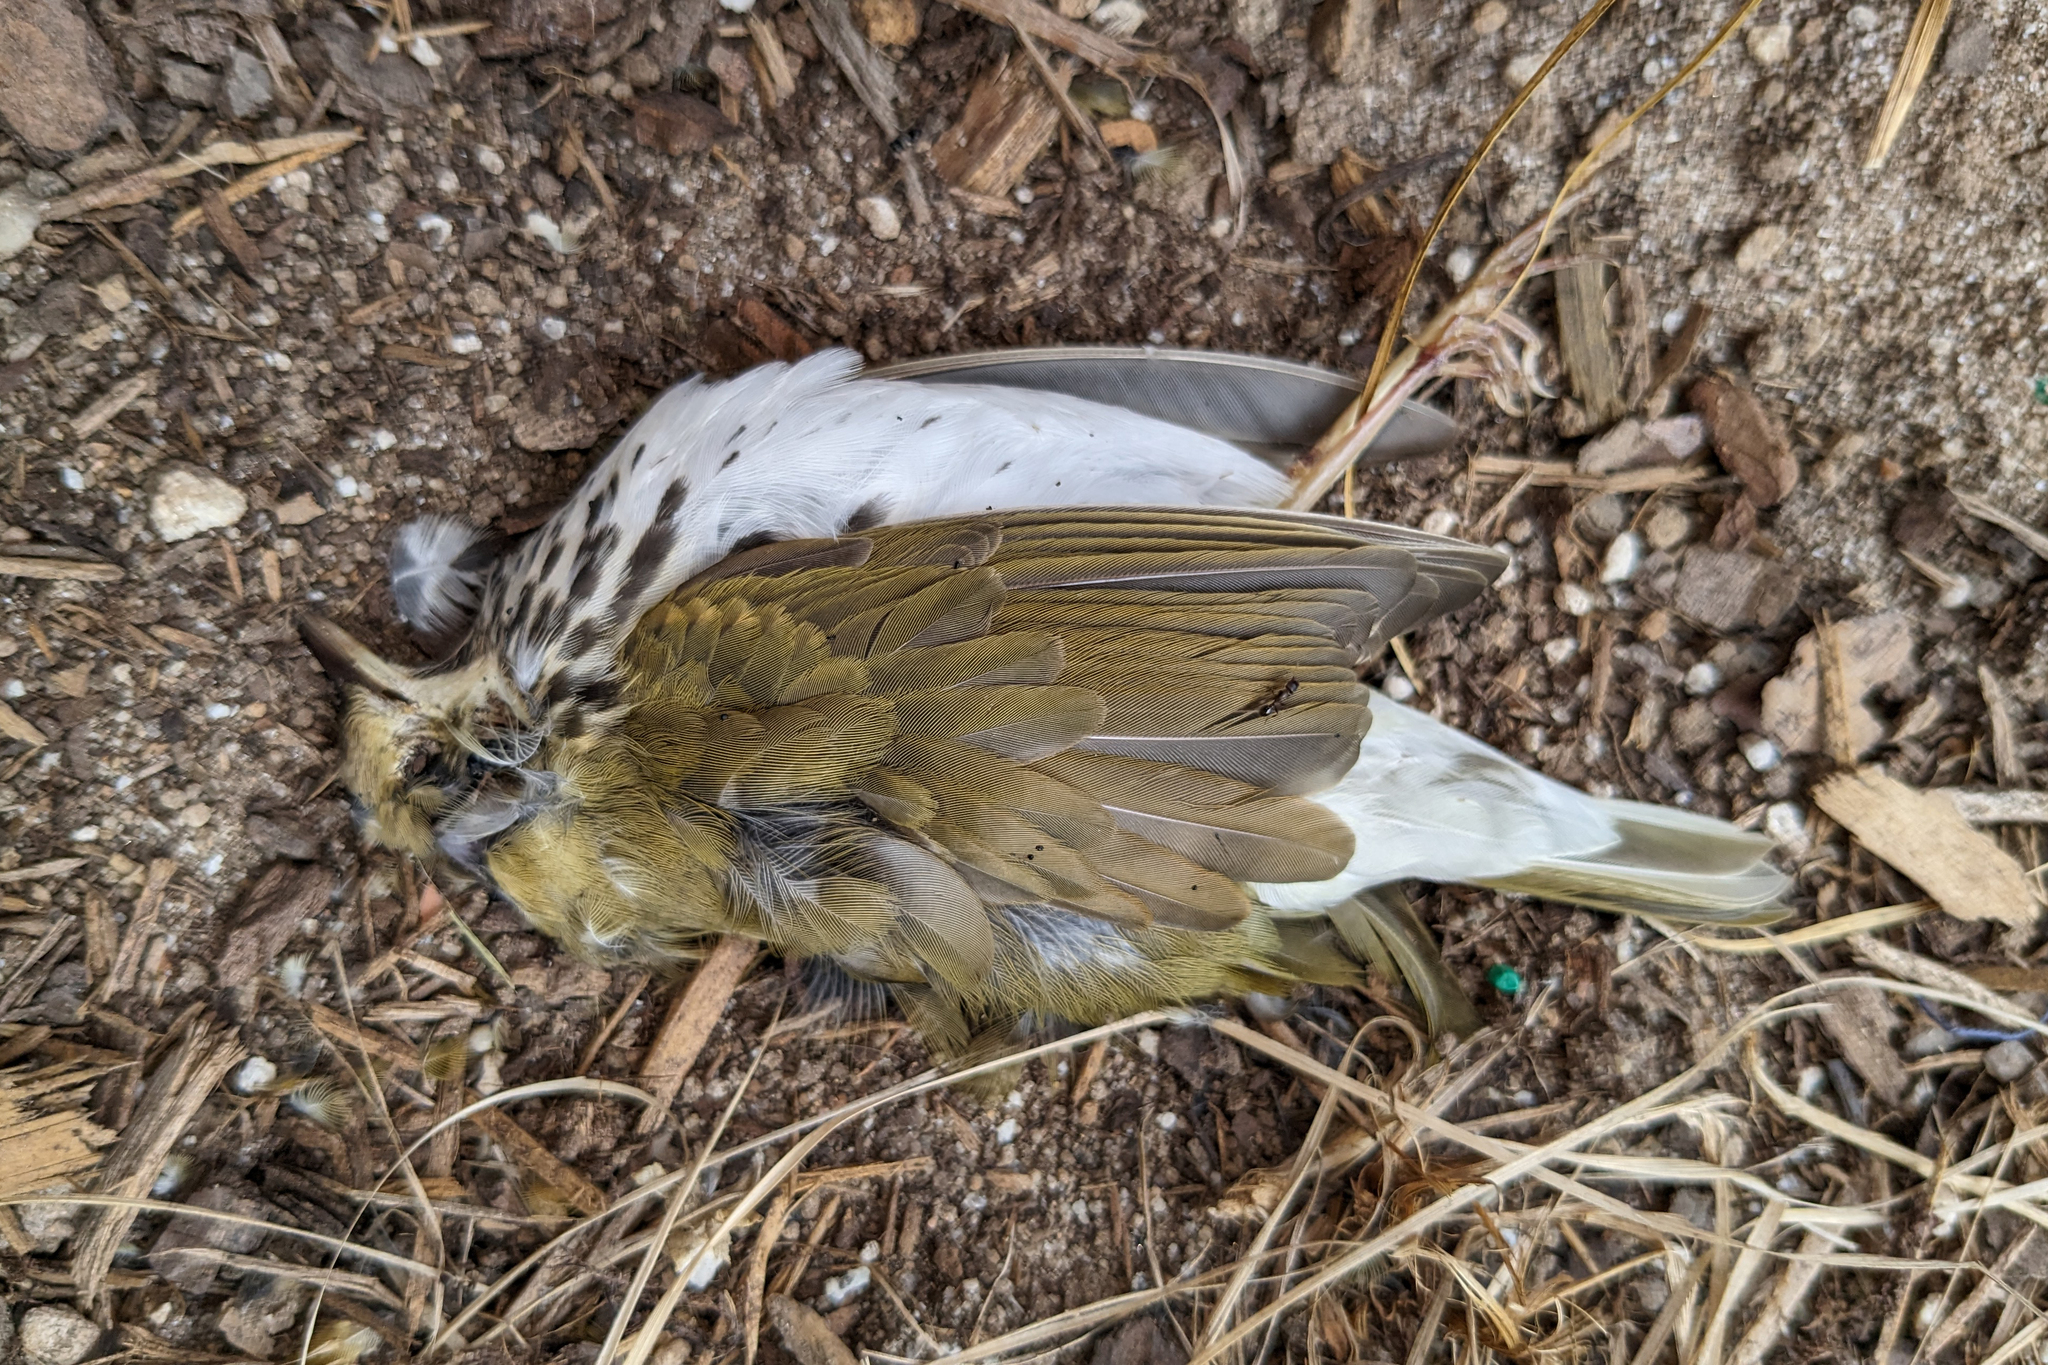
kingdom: Animalia
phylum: Chordata
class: Aves
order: Passeriformes
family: Parulidae
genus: Seiurus
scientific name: Seiurus aurocapilla
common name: Ovenbird
